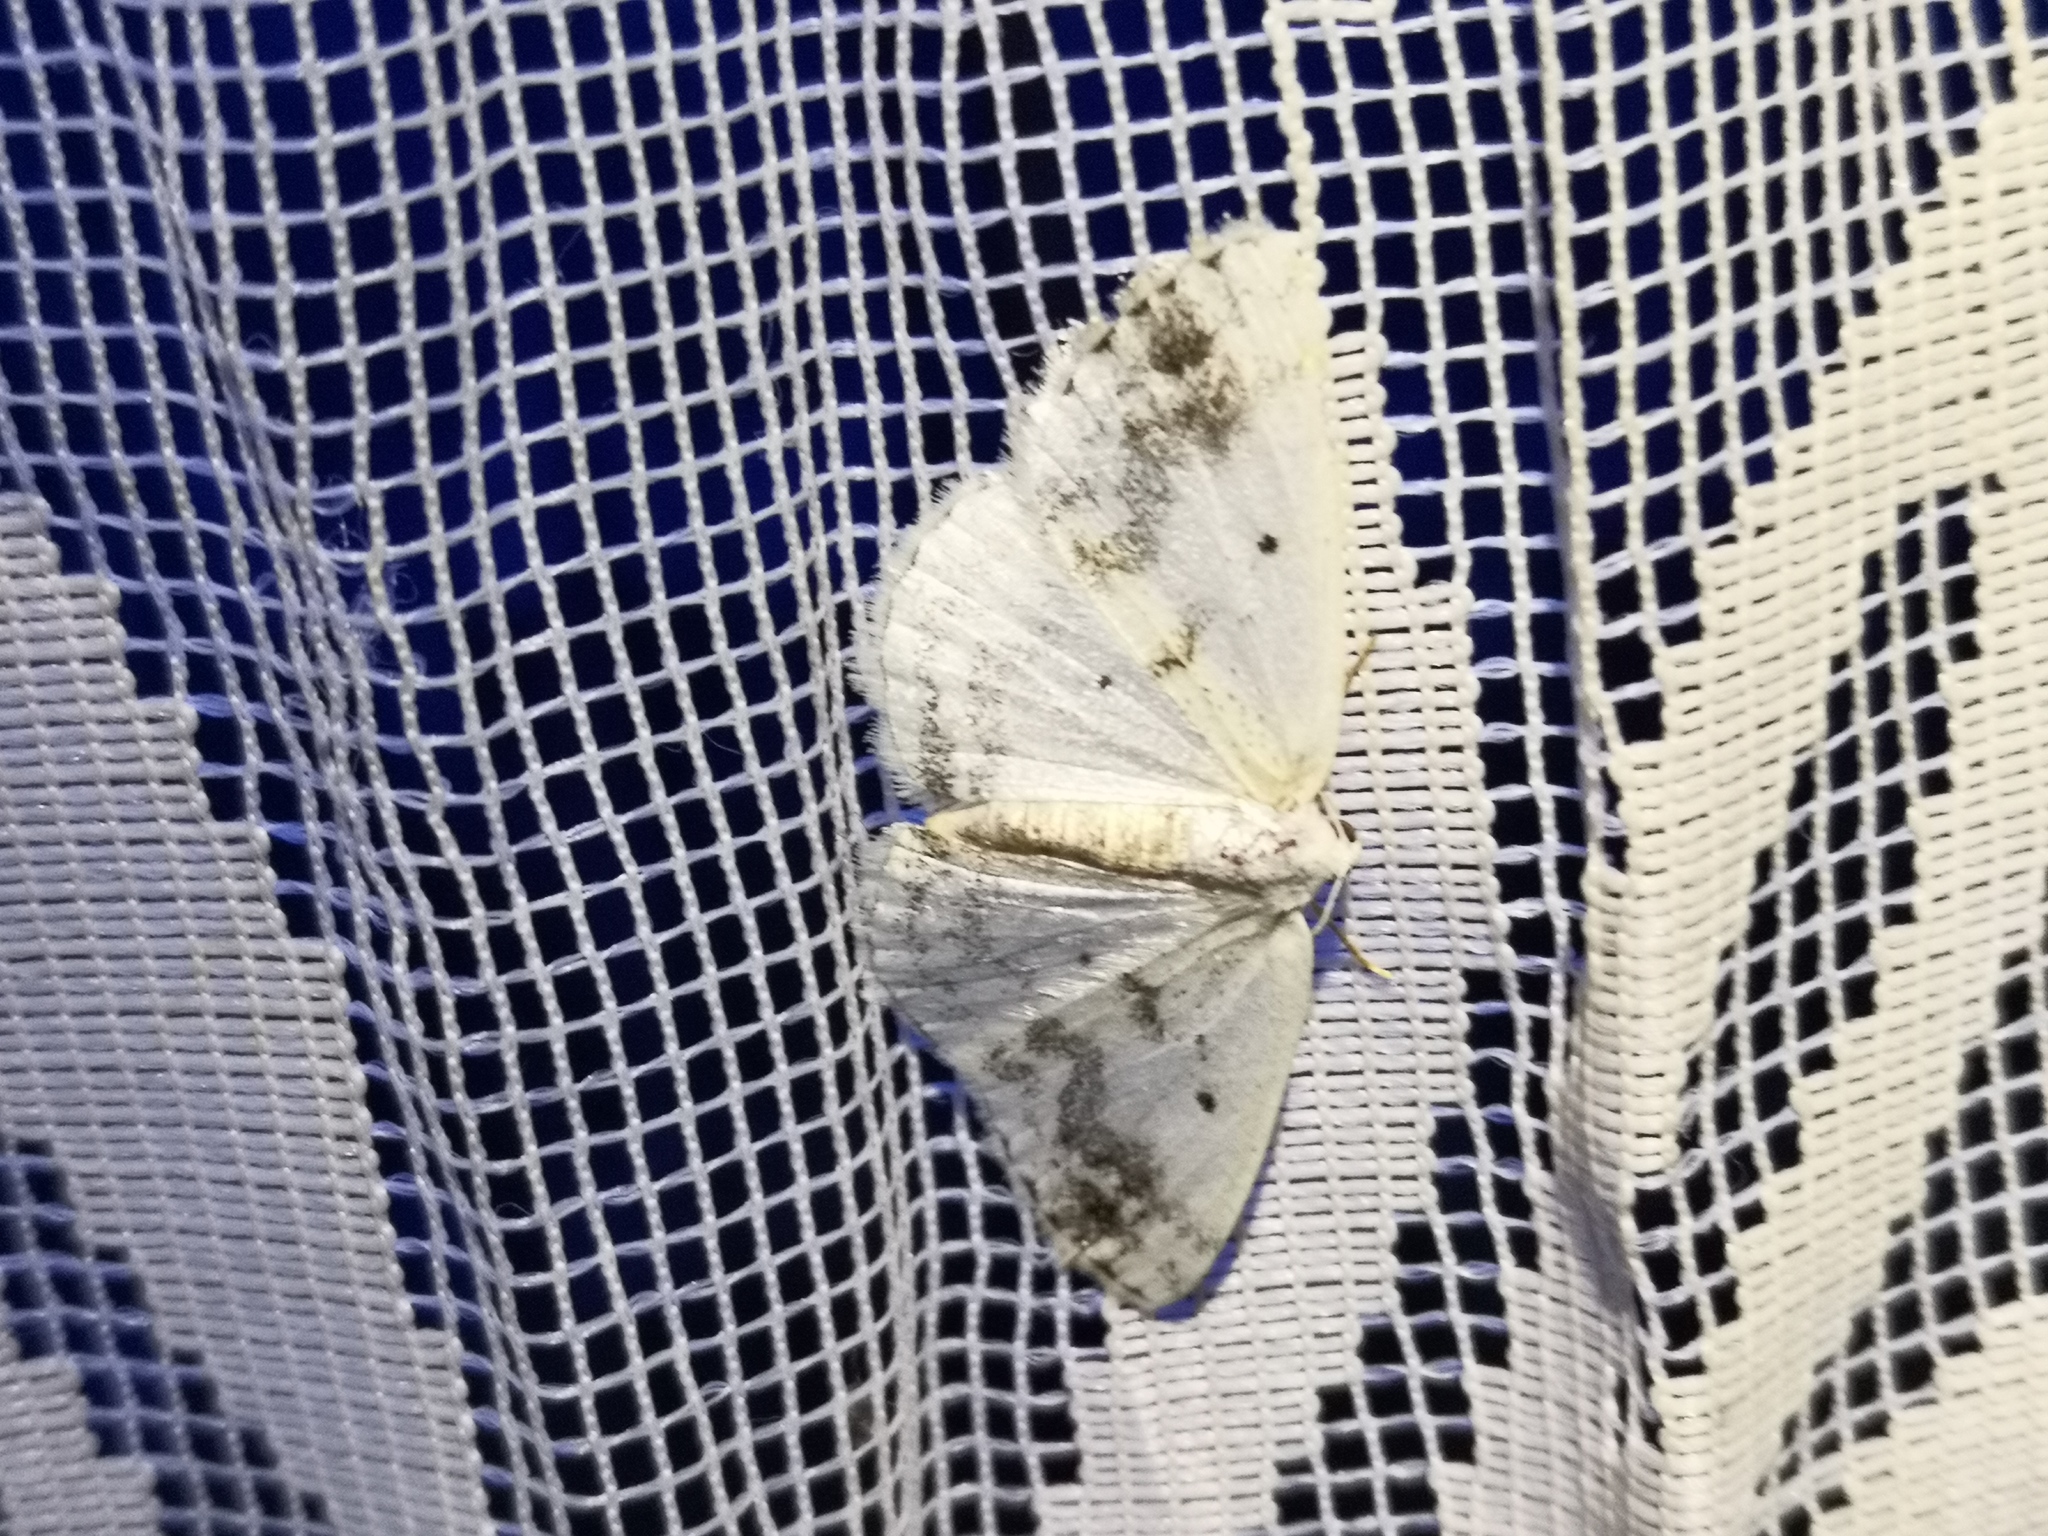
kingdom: Animalia
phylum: Arthropoda
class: Insecta
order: Lepidoptera
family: Geometridae
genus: Lomographa
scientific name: Lomographa temerata
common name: Clouded silver
